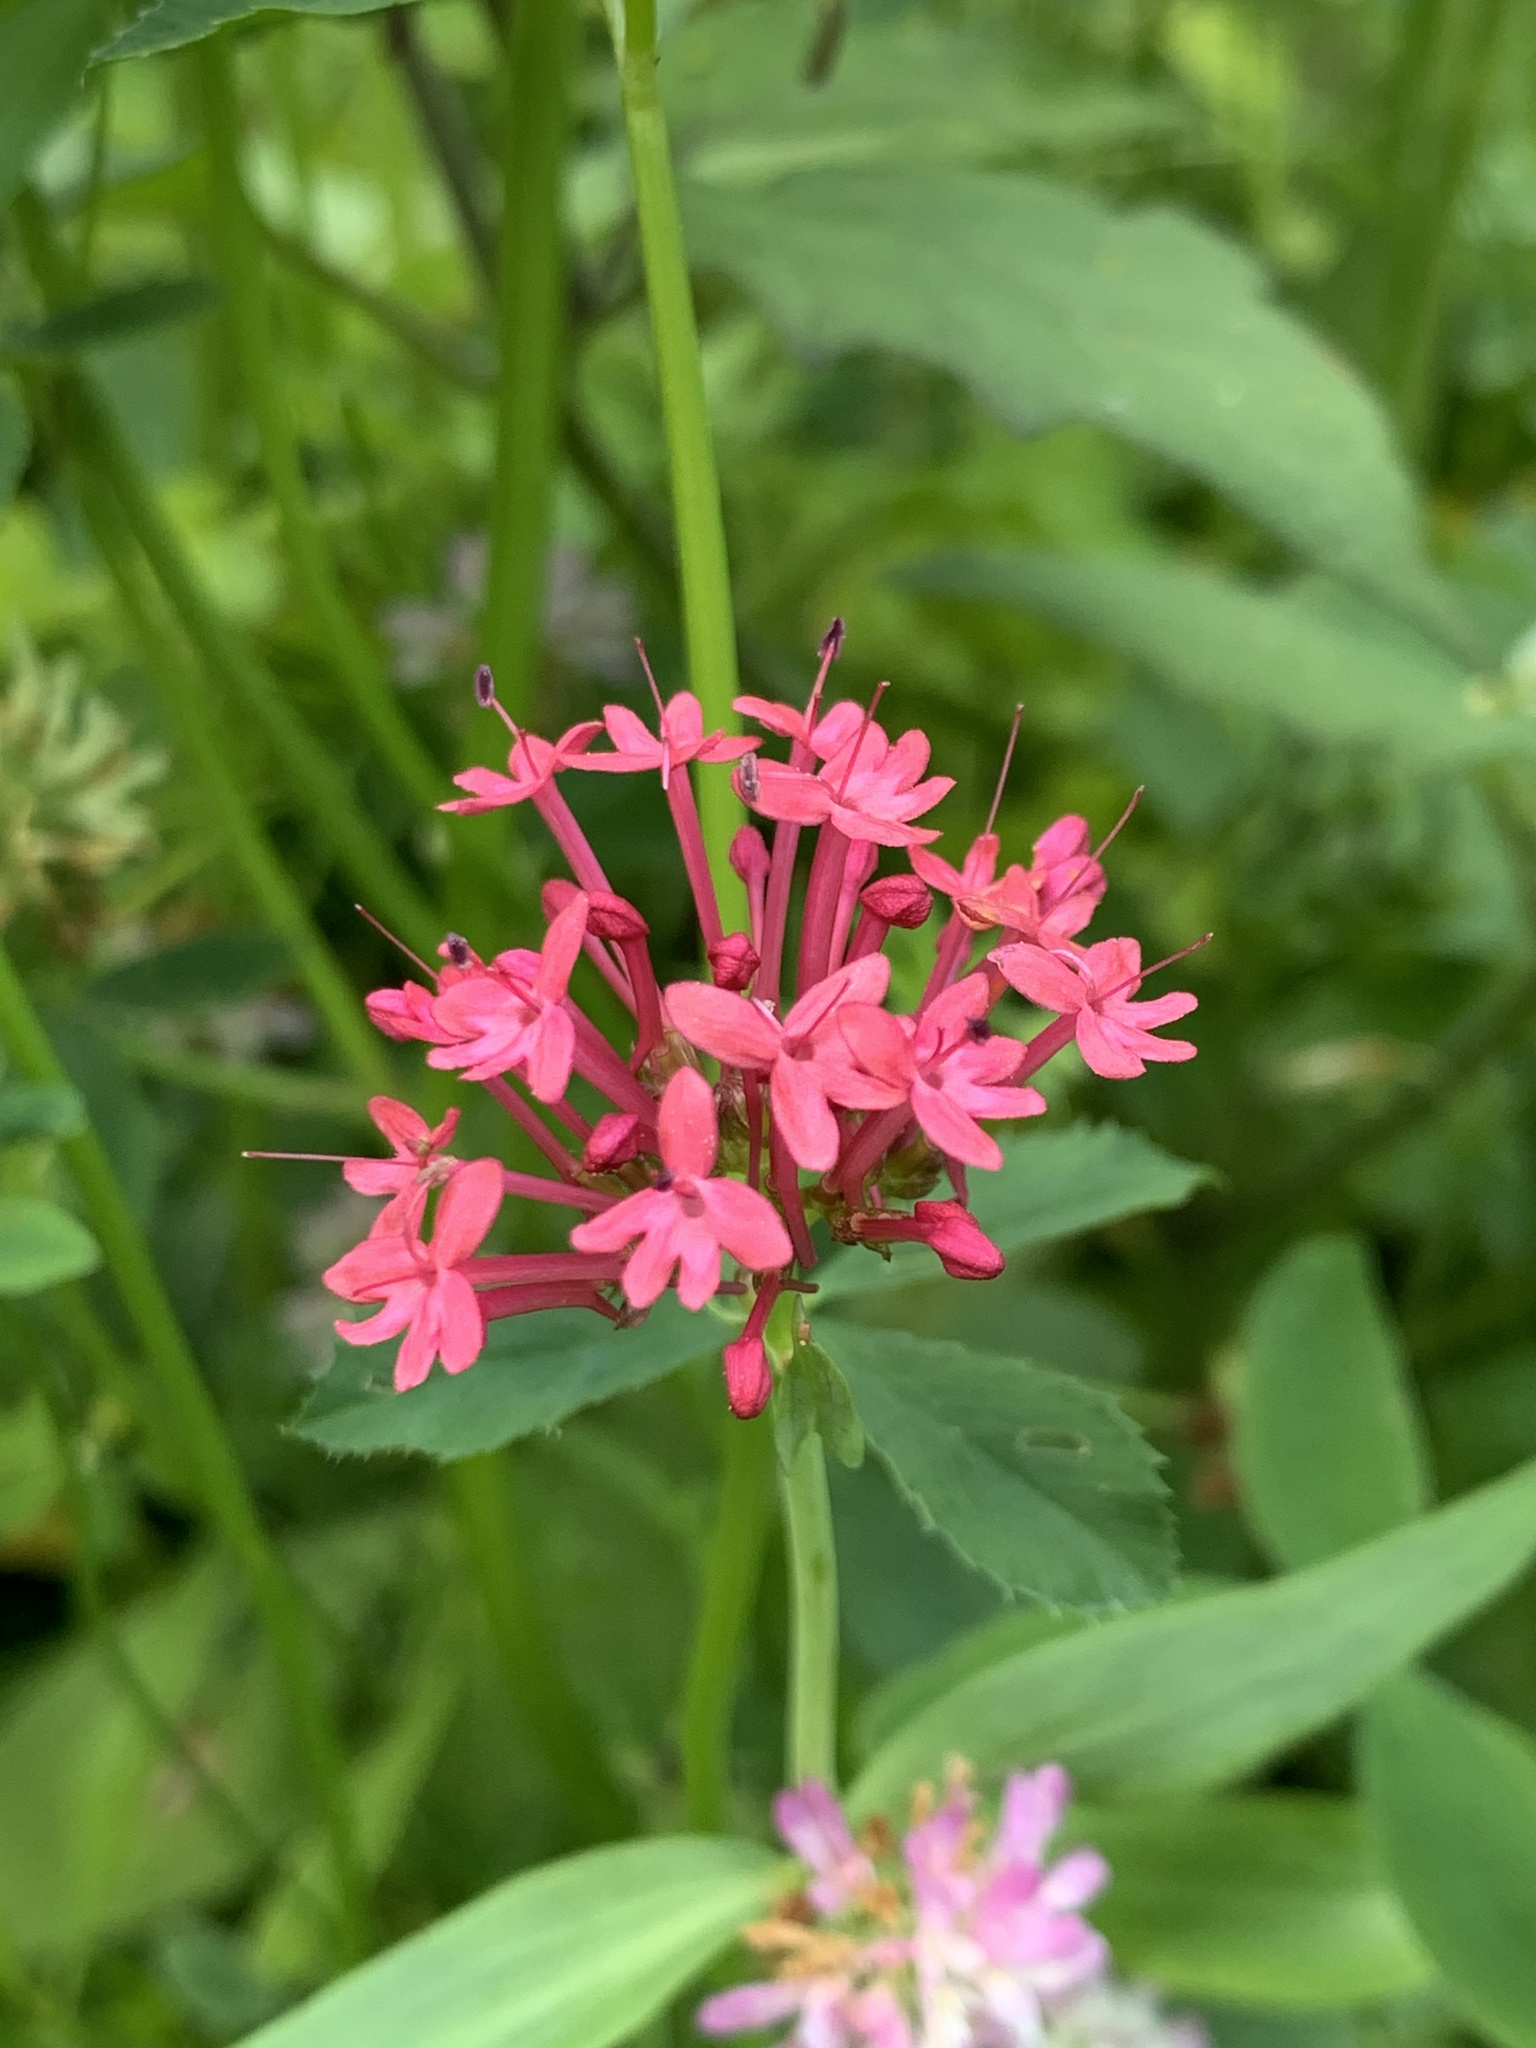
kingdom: Plantae
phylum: Tracheophyta
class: Magnoliopsida
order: Dipsacales
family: Caprifoliaceae
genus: Centranthus
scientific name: Centranthus ruber
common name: Red valerian
